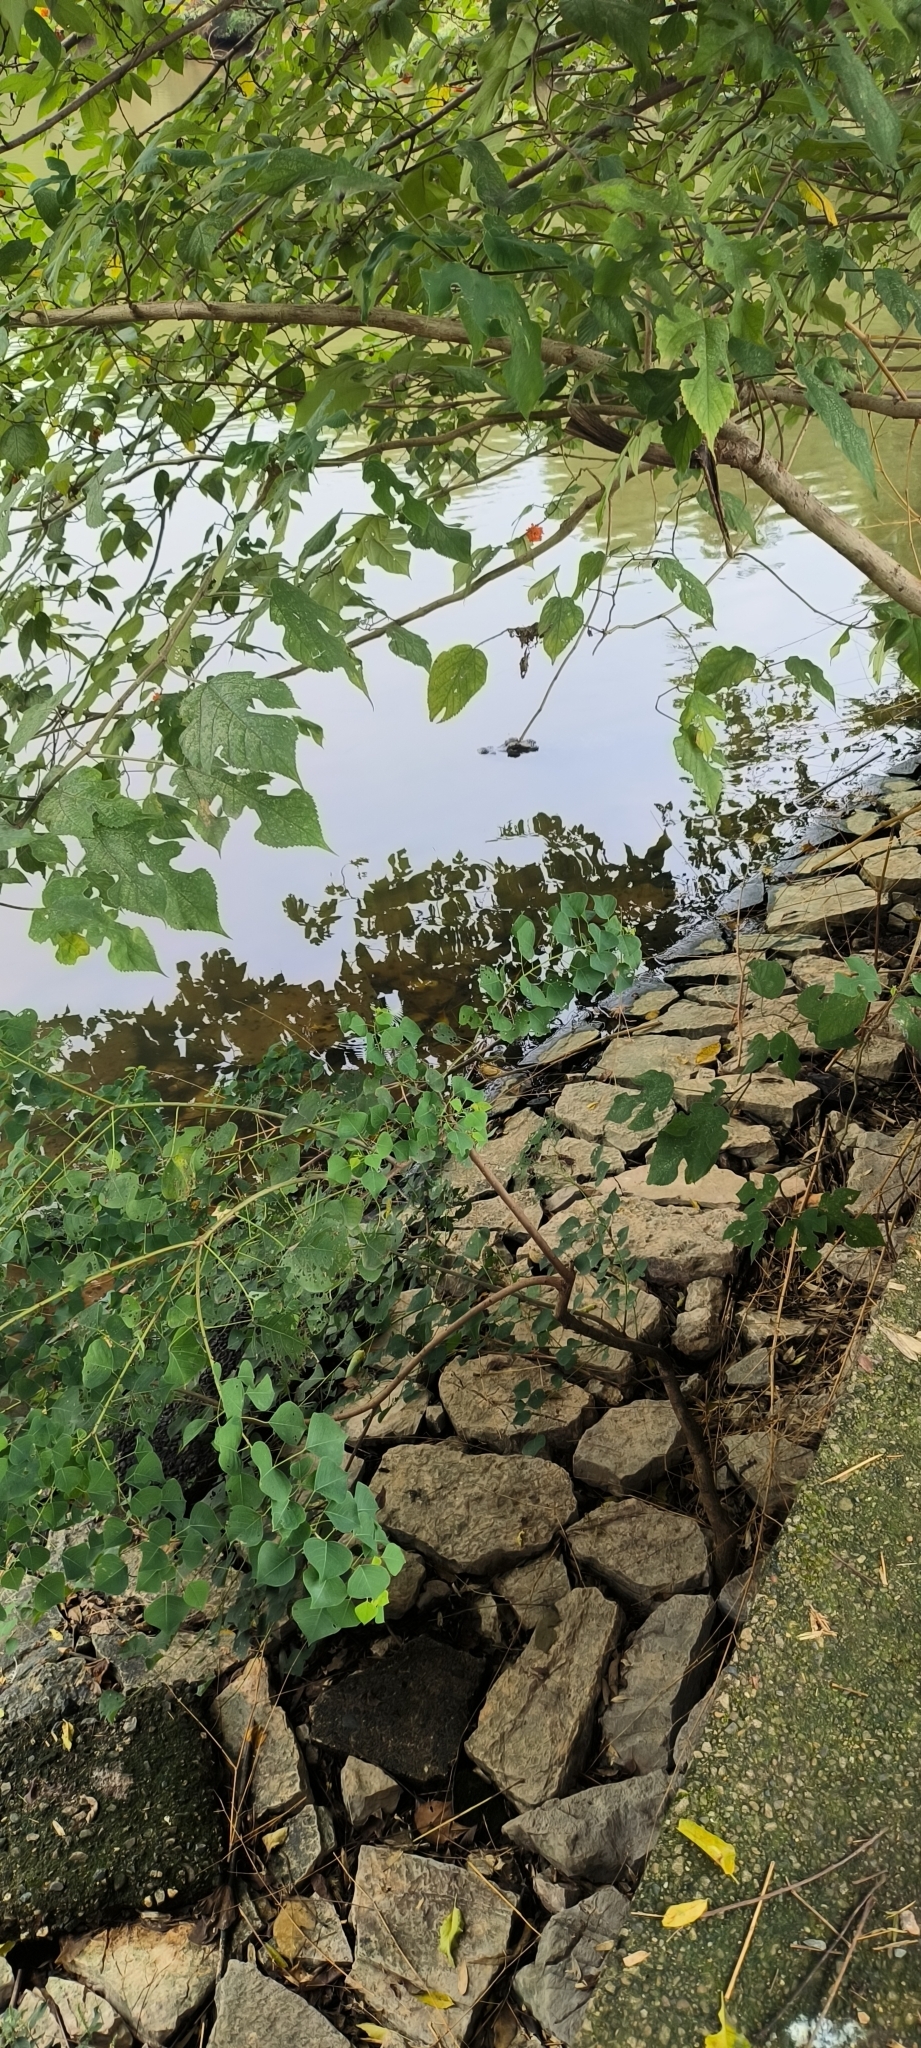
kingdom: Animalia
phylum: Chordata
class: Crocodylia
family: Alligatoridae
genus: Alligator
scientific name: Alligator sinensis
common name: Chinese alligator
